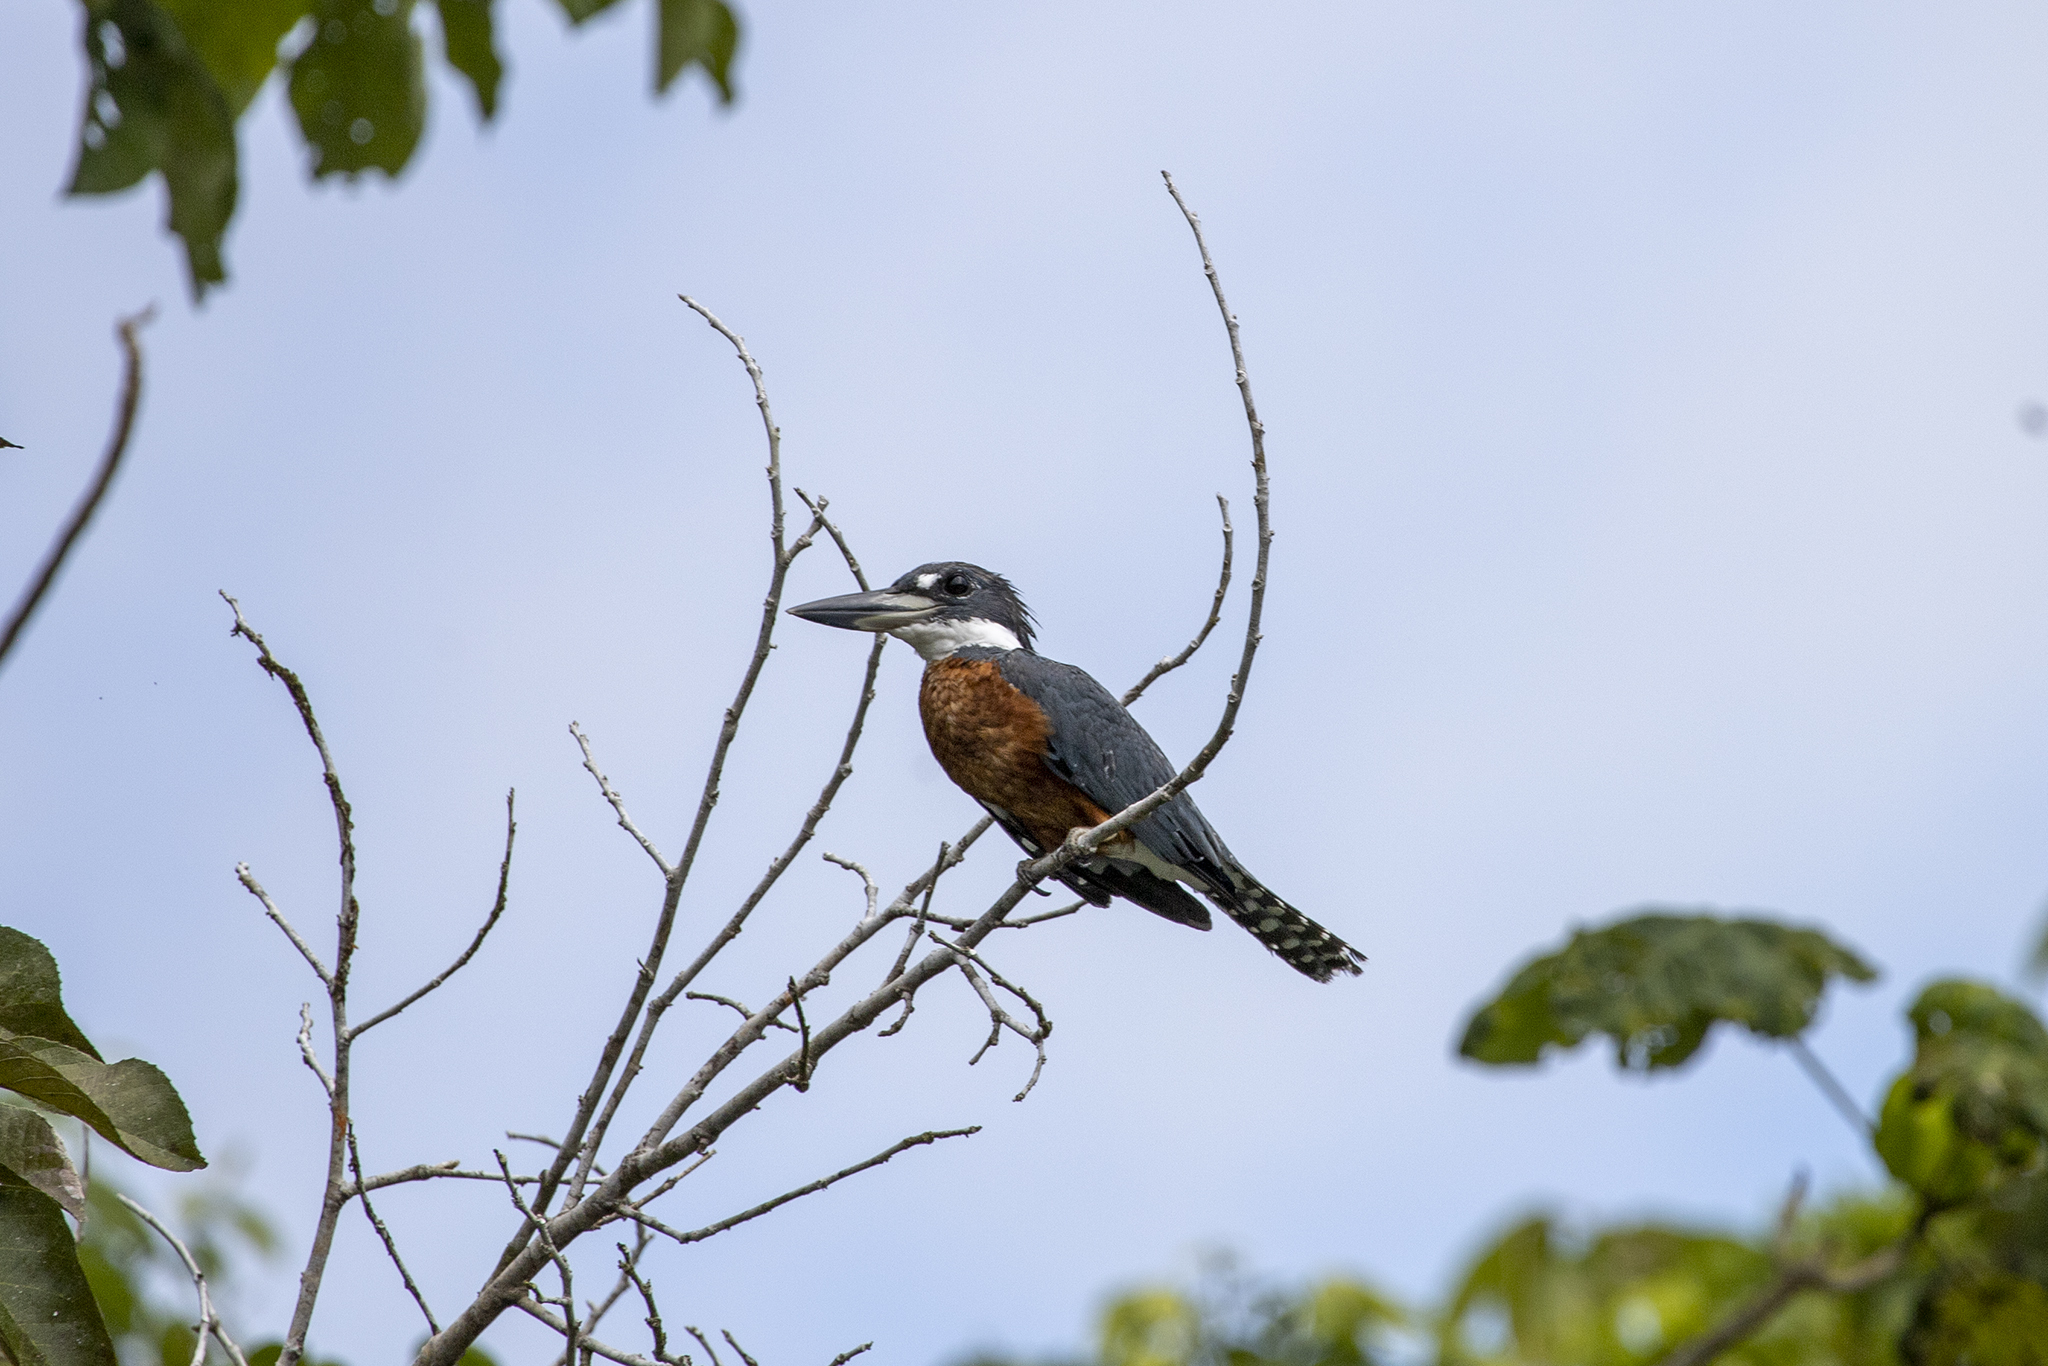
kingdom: Animalia
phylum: Chordata
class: Aves
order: Coraciiformes
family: Alcedinidae
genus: Megaceryle
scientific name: Megaceryle torquata
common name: Ringed kingfisher
